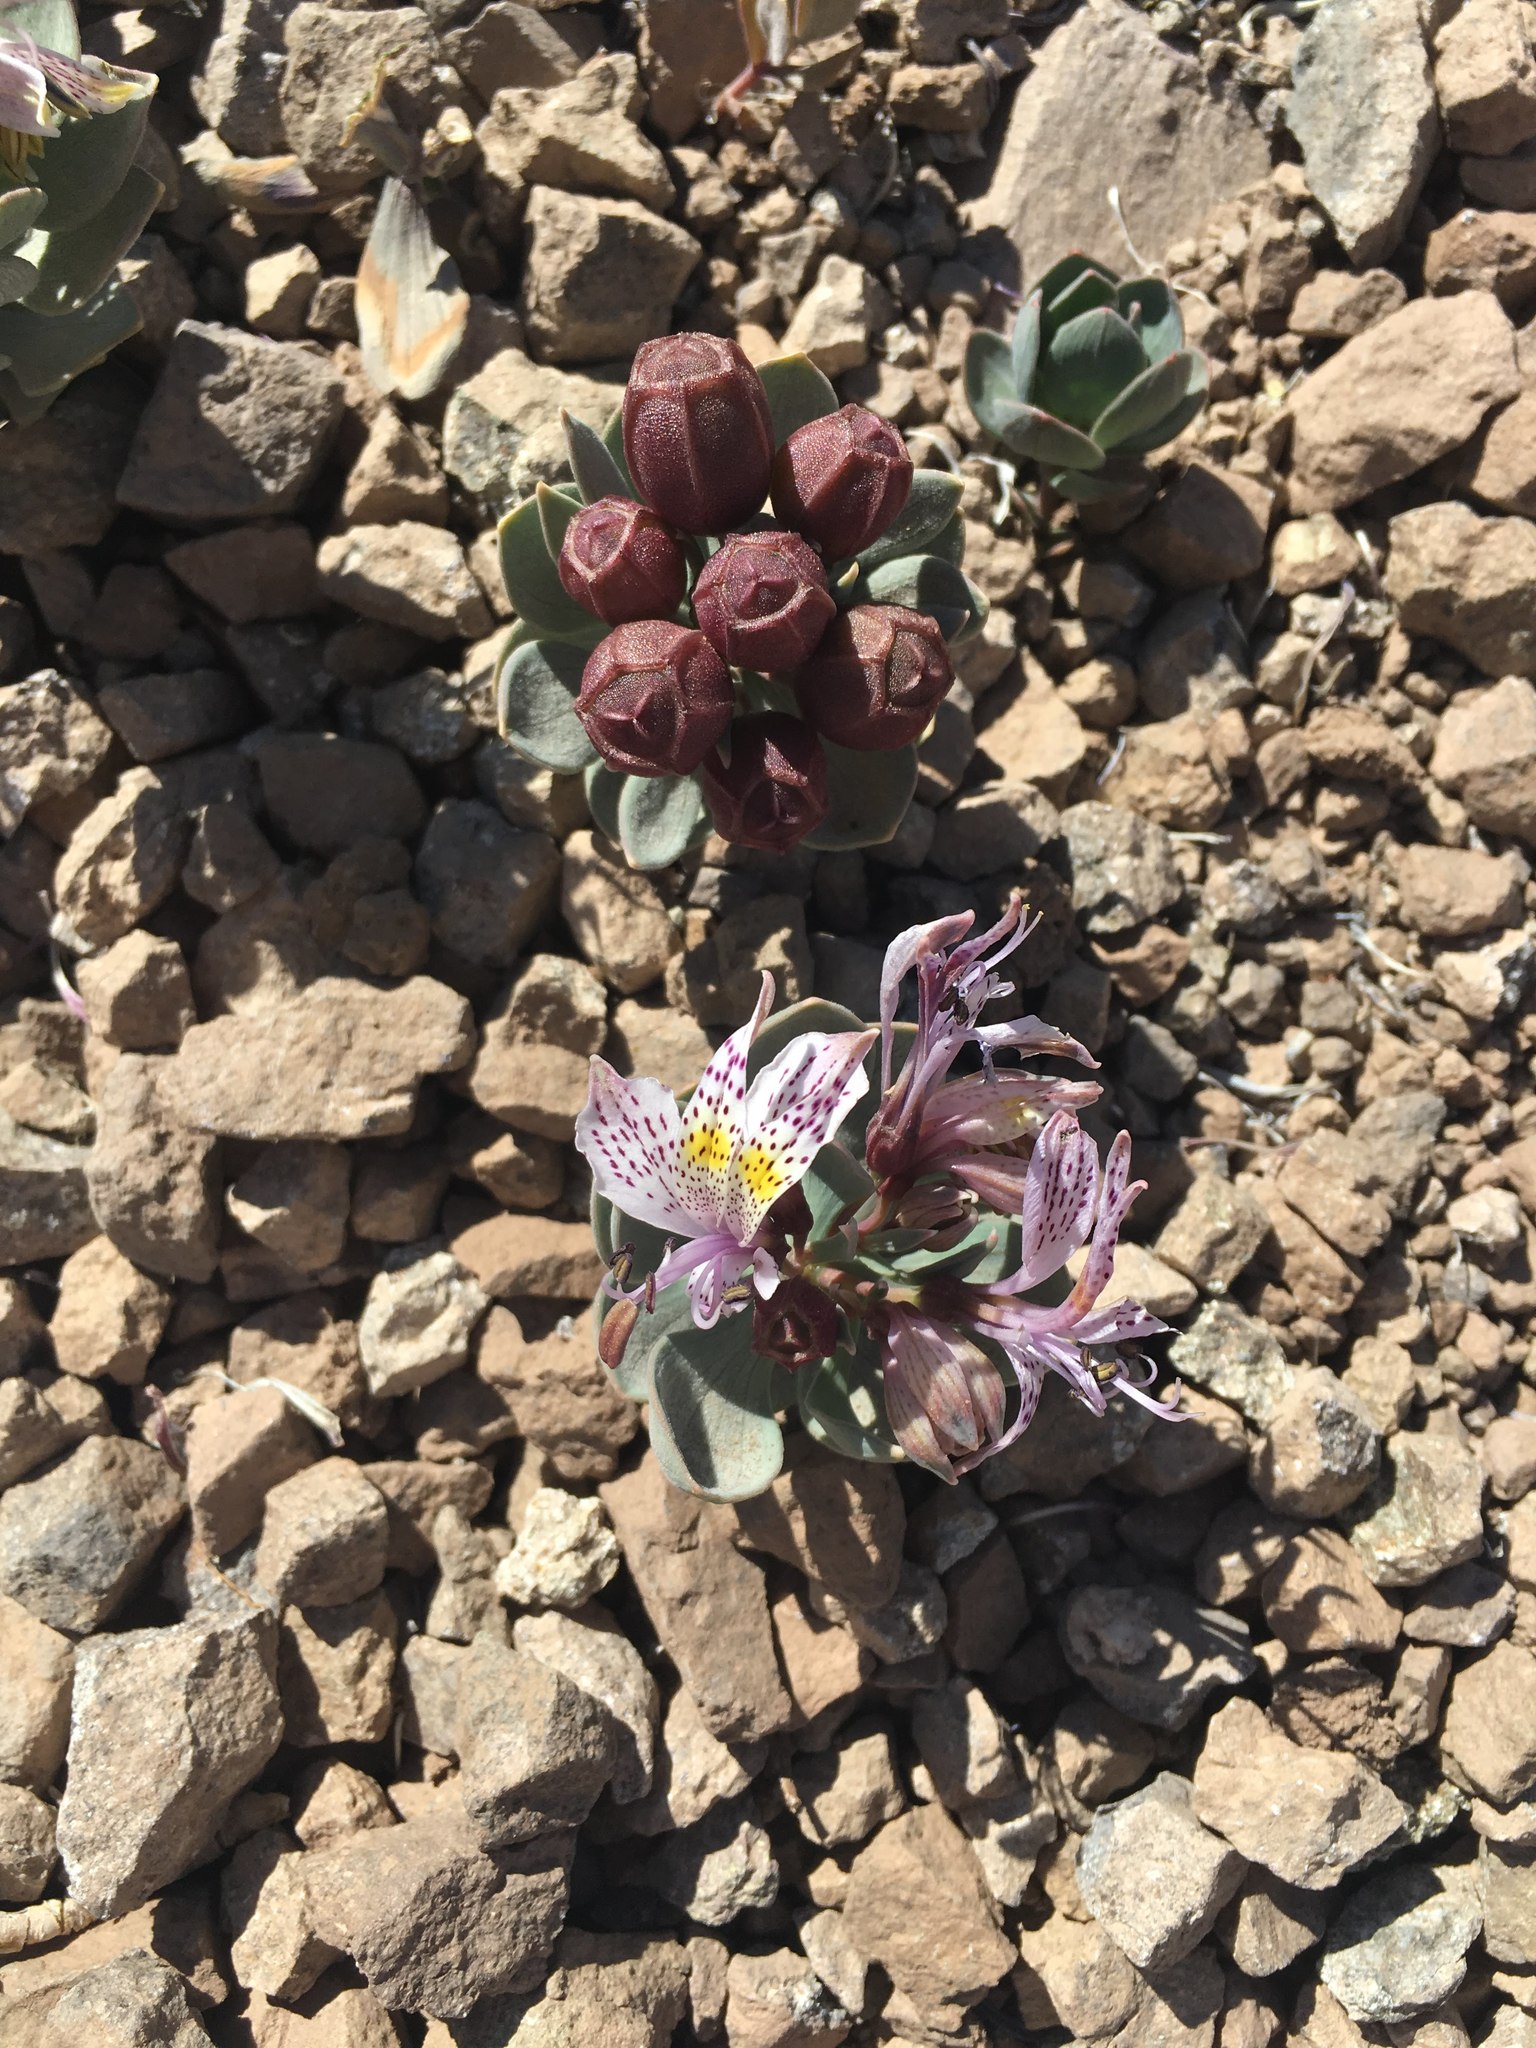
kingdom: Plantae
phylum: Tracheophyta
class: Liliopsida
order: Liliales
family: Alstroemeriaceae
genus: Alstroemeria
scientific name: Alstroemeria andina
